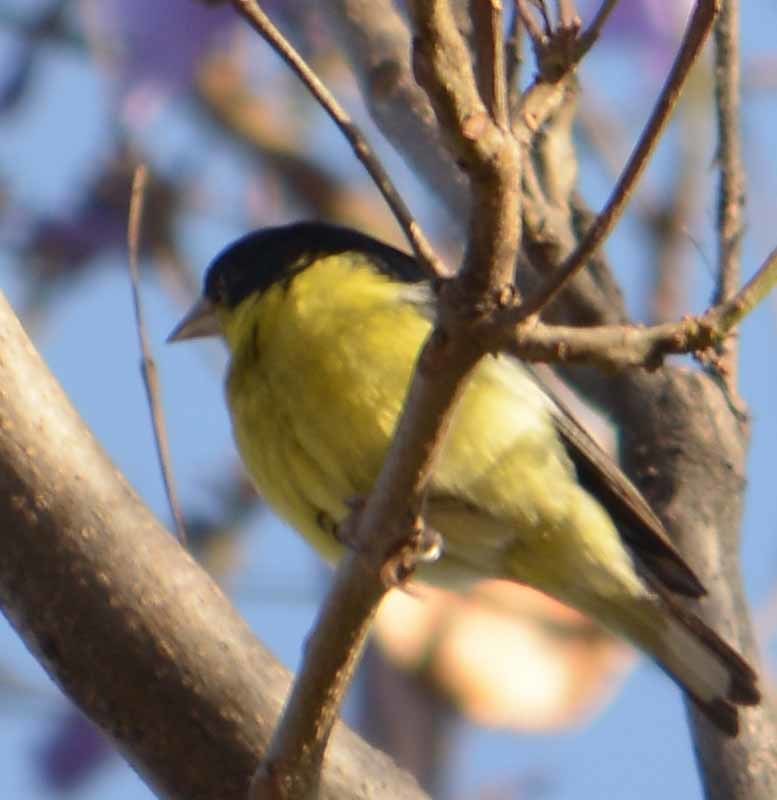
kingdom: Animalia
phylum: Chordata
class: Aves
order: Passeriformes
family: Fringillidae
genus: Spinus
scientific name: Spinus psaltria
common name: Lesser goldfinch
